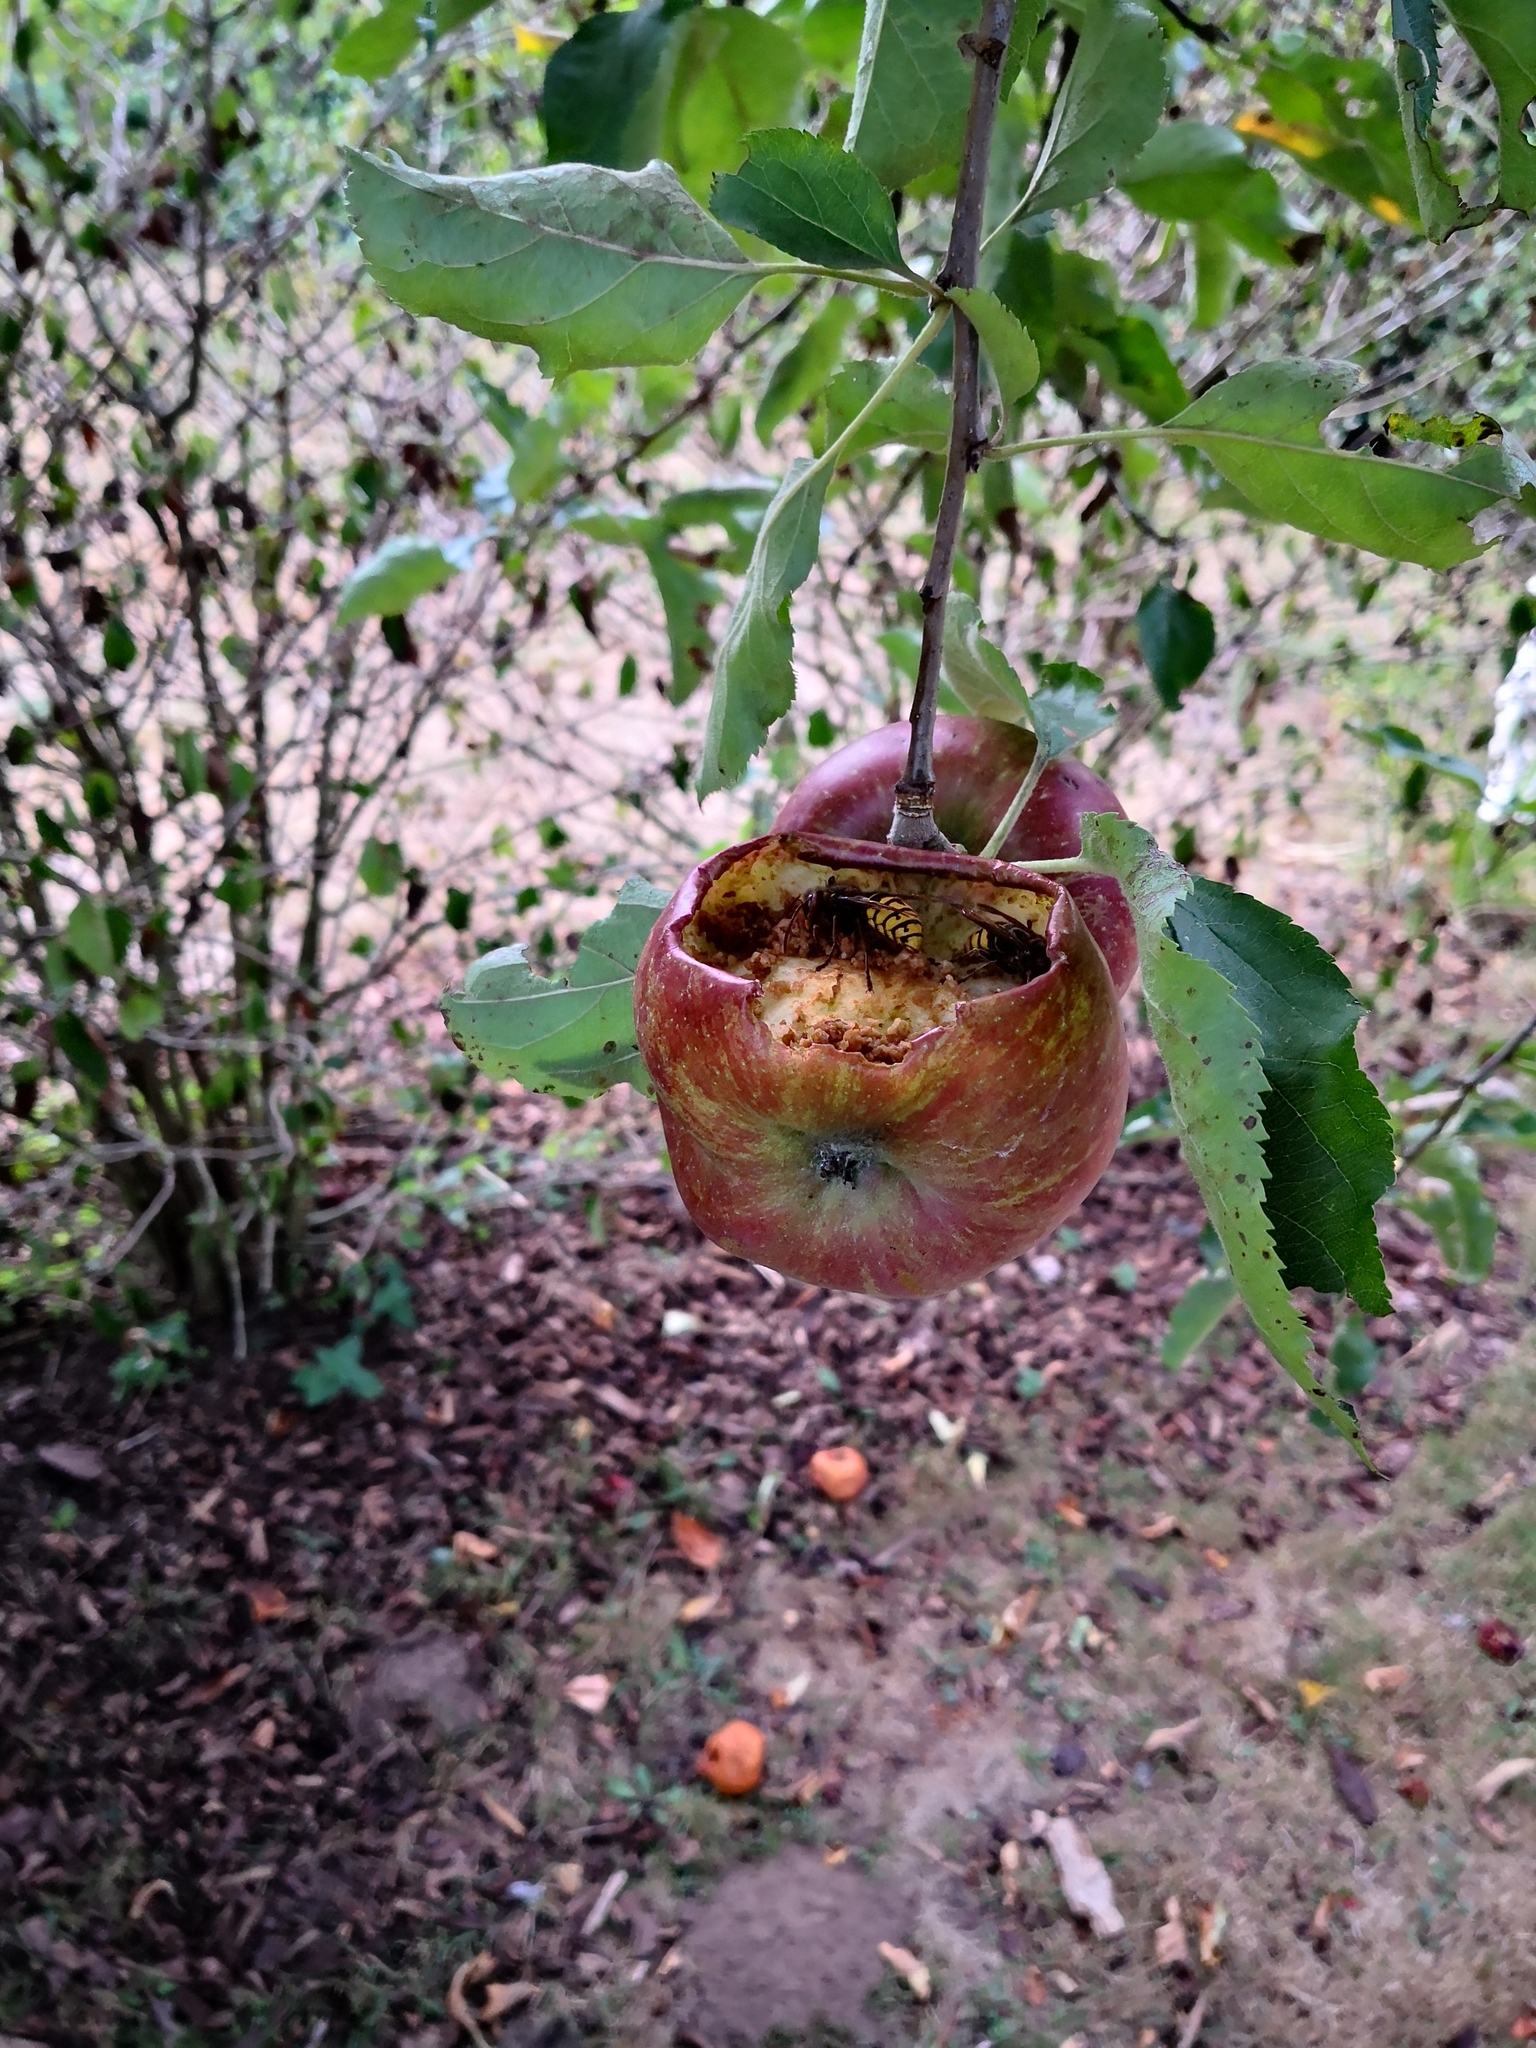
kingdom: Animalia
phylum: Arthropoda
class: Insecta
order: Hymenoptera
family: Vespidae
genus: Vespa
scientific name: Vespa crabro
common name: Hornet
